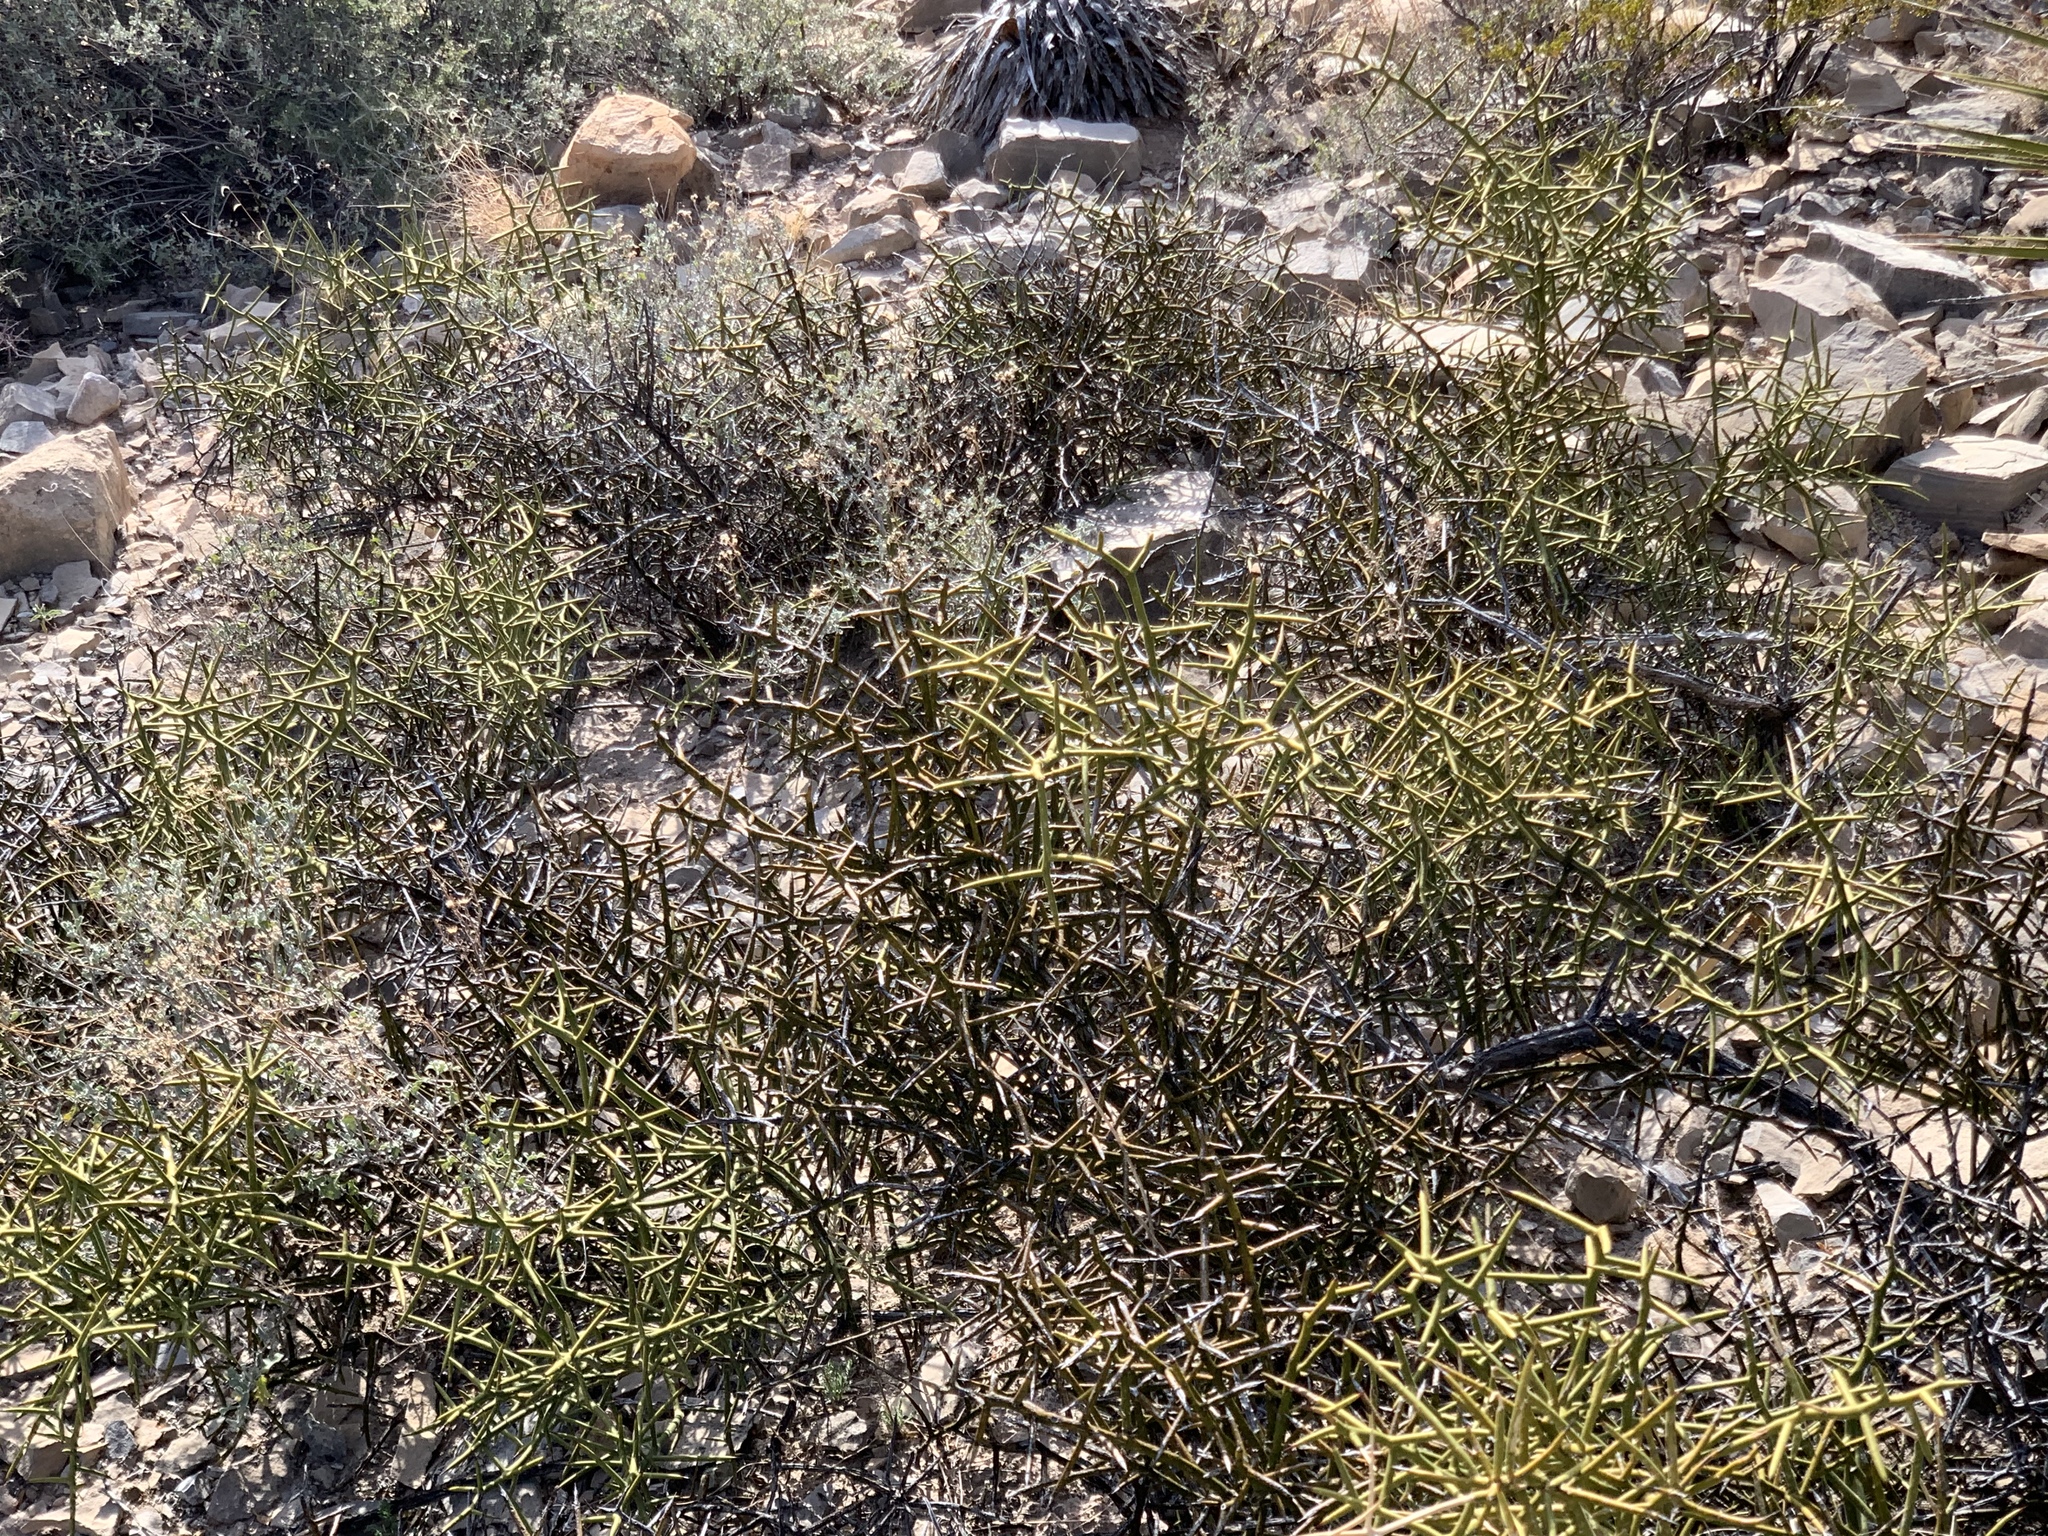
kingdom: Plantae
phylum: Tracheophyta
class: Magnoliopsida
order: Brassicales
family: Koeberliniaceae
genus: Koeberlinia
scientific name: Koeberlinia spinosa
